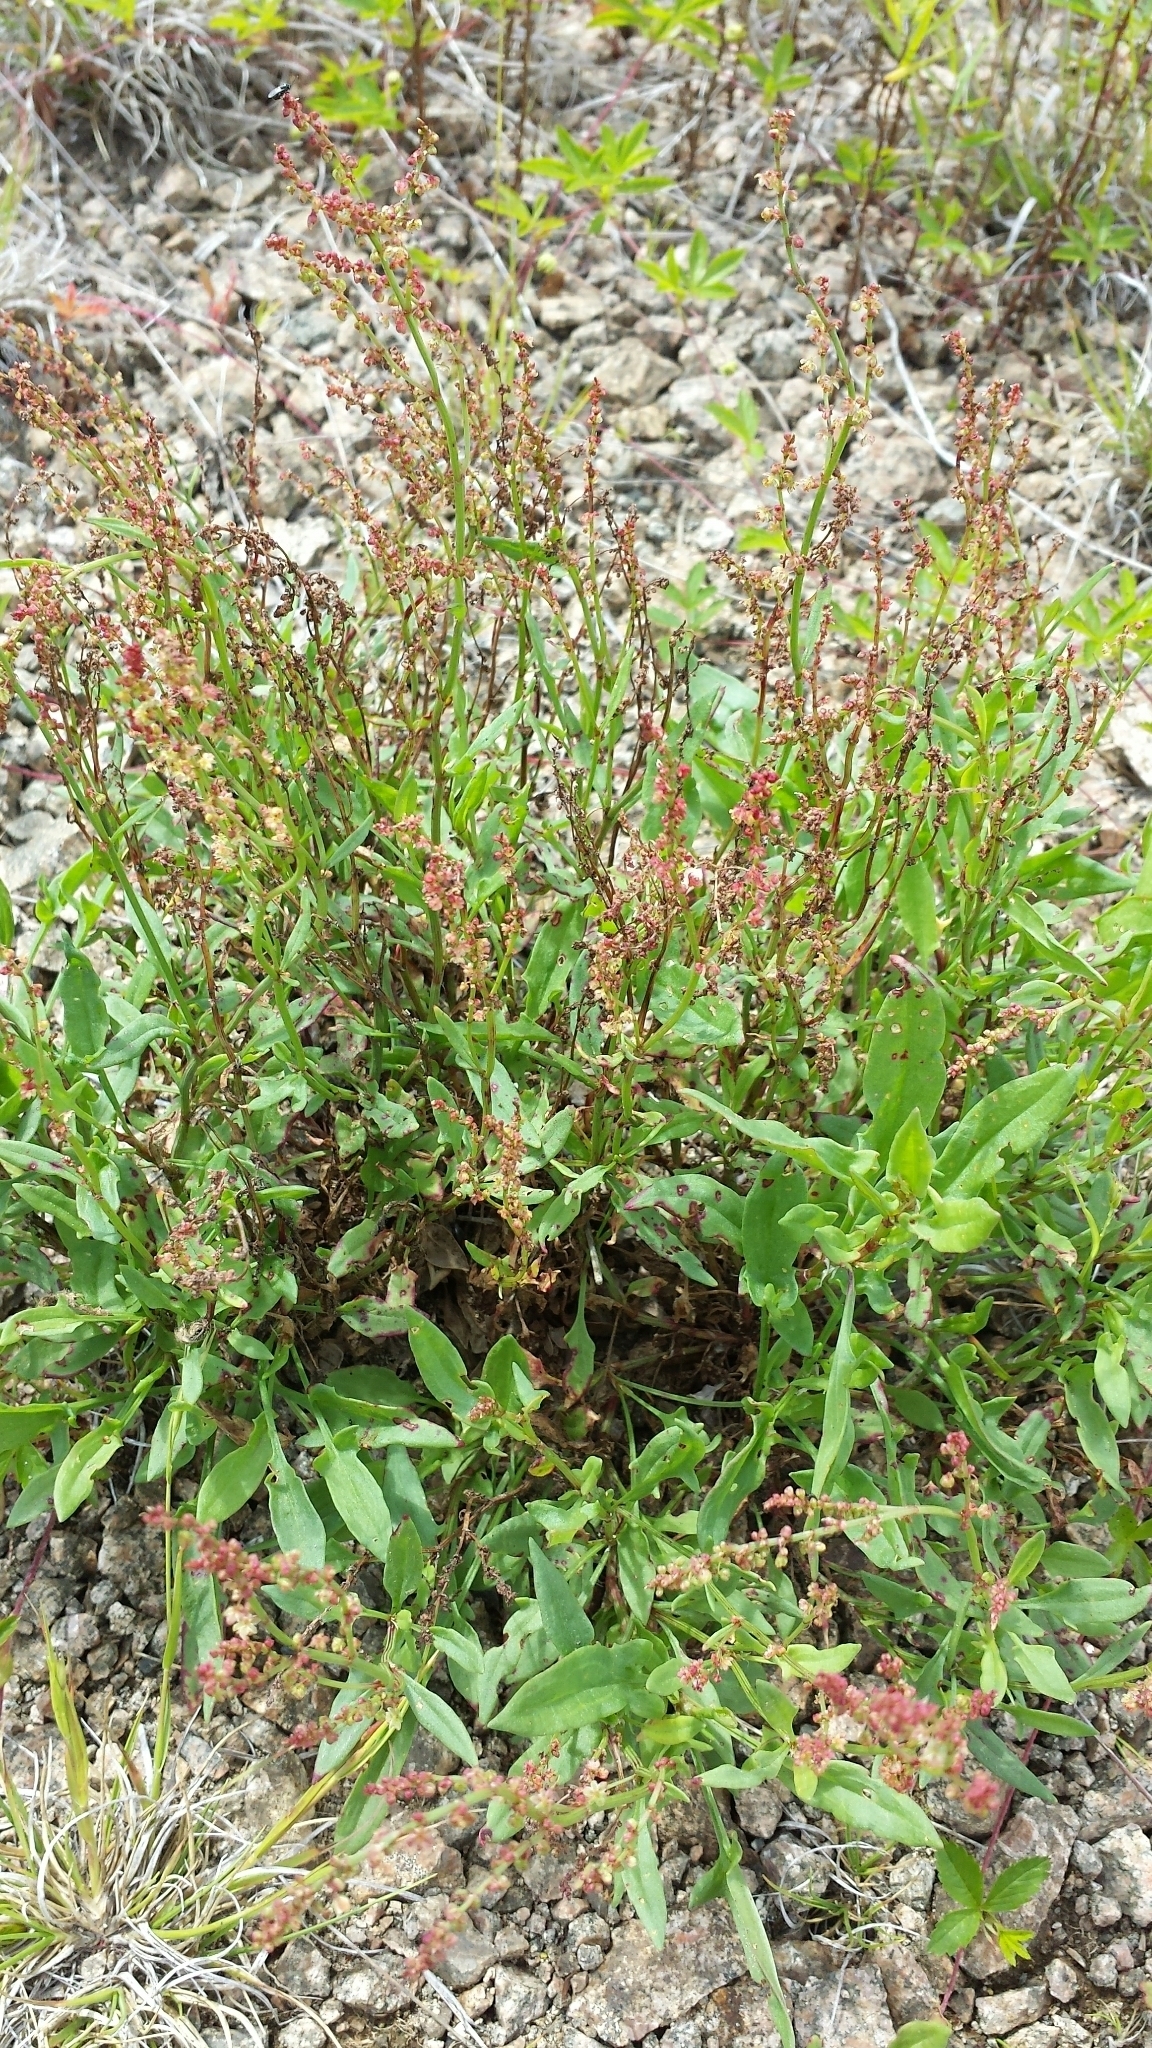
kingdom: Plantae
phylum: Tracheophyta
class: Magnoliopsida
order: Caryophyllales
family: Polygonaceae
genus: Rumex
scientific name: Rumex acetosella
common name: Common sheep sorrel
